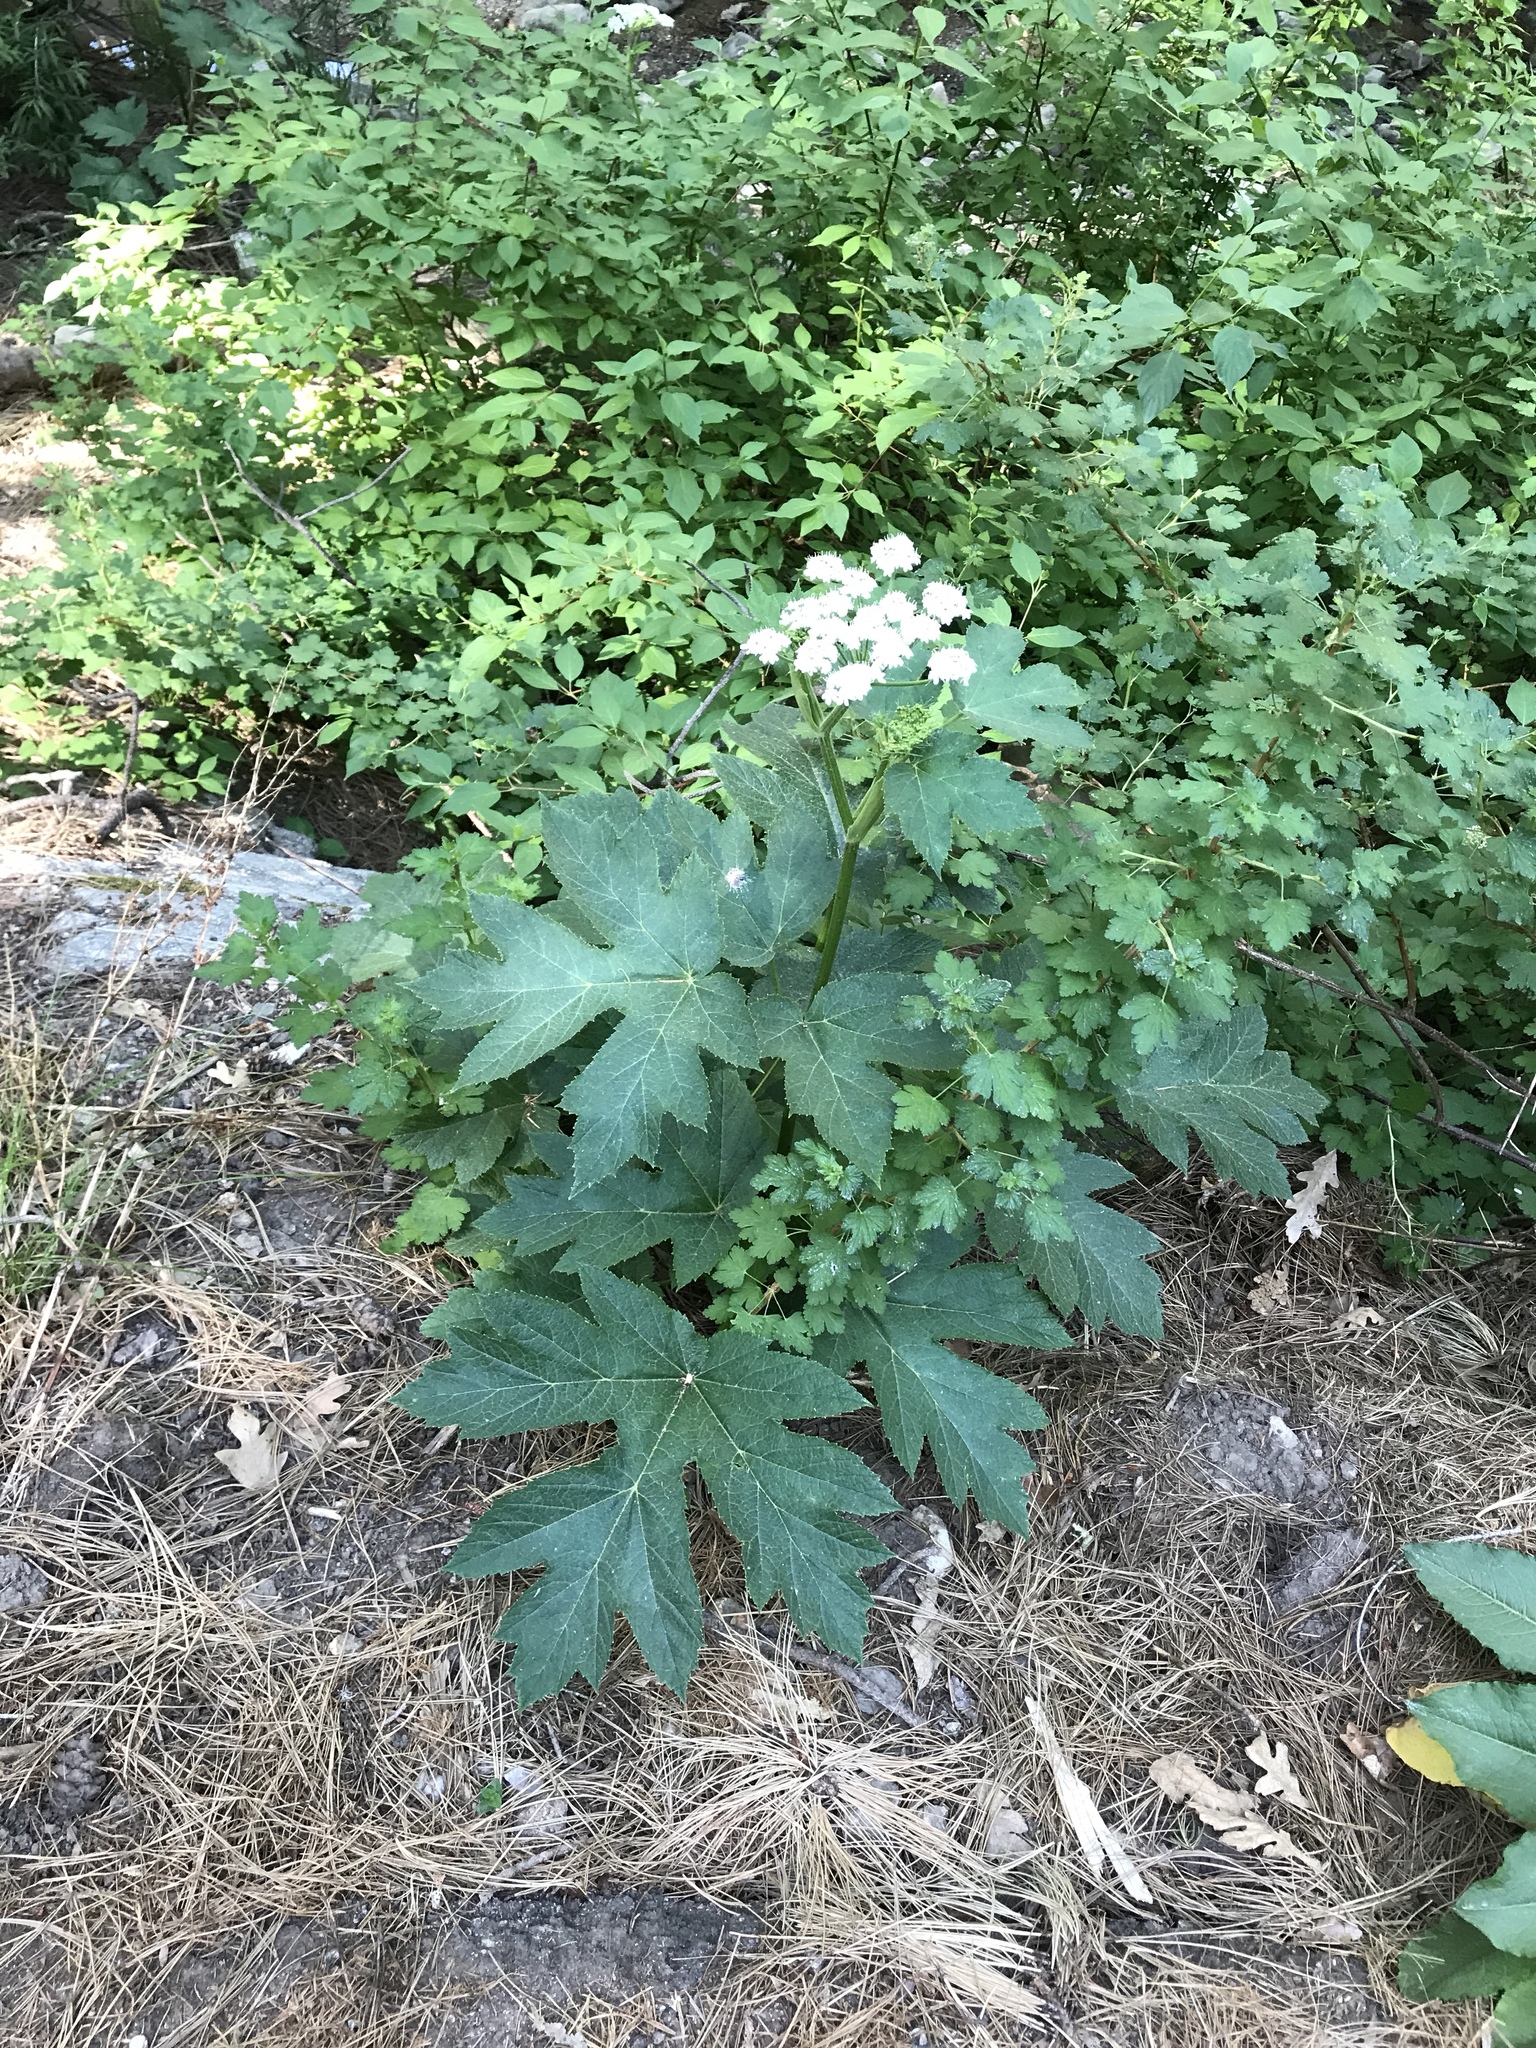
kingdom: Plantae
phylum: Tracheophyta
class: Magnoliopsida
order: Apiales
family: Apiaceae
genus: Heracleum
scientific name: Heracleum maximum
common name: American cow parsnip
